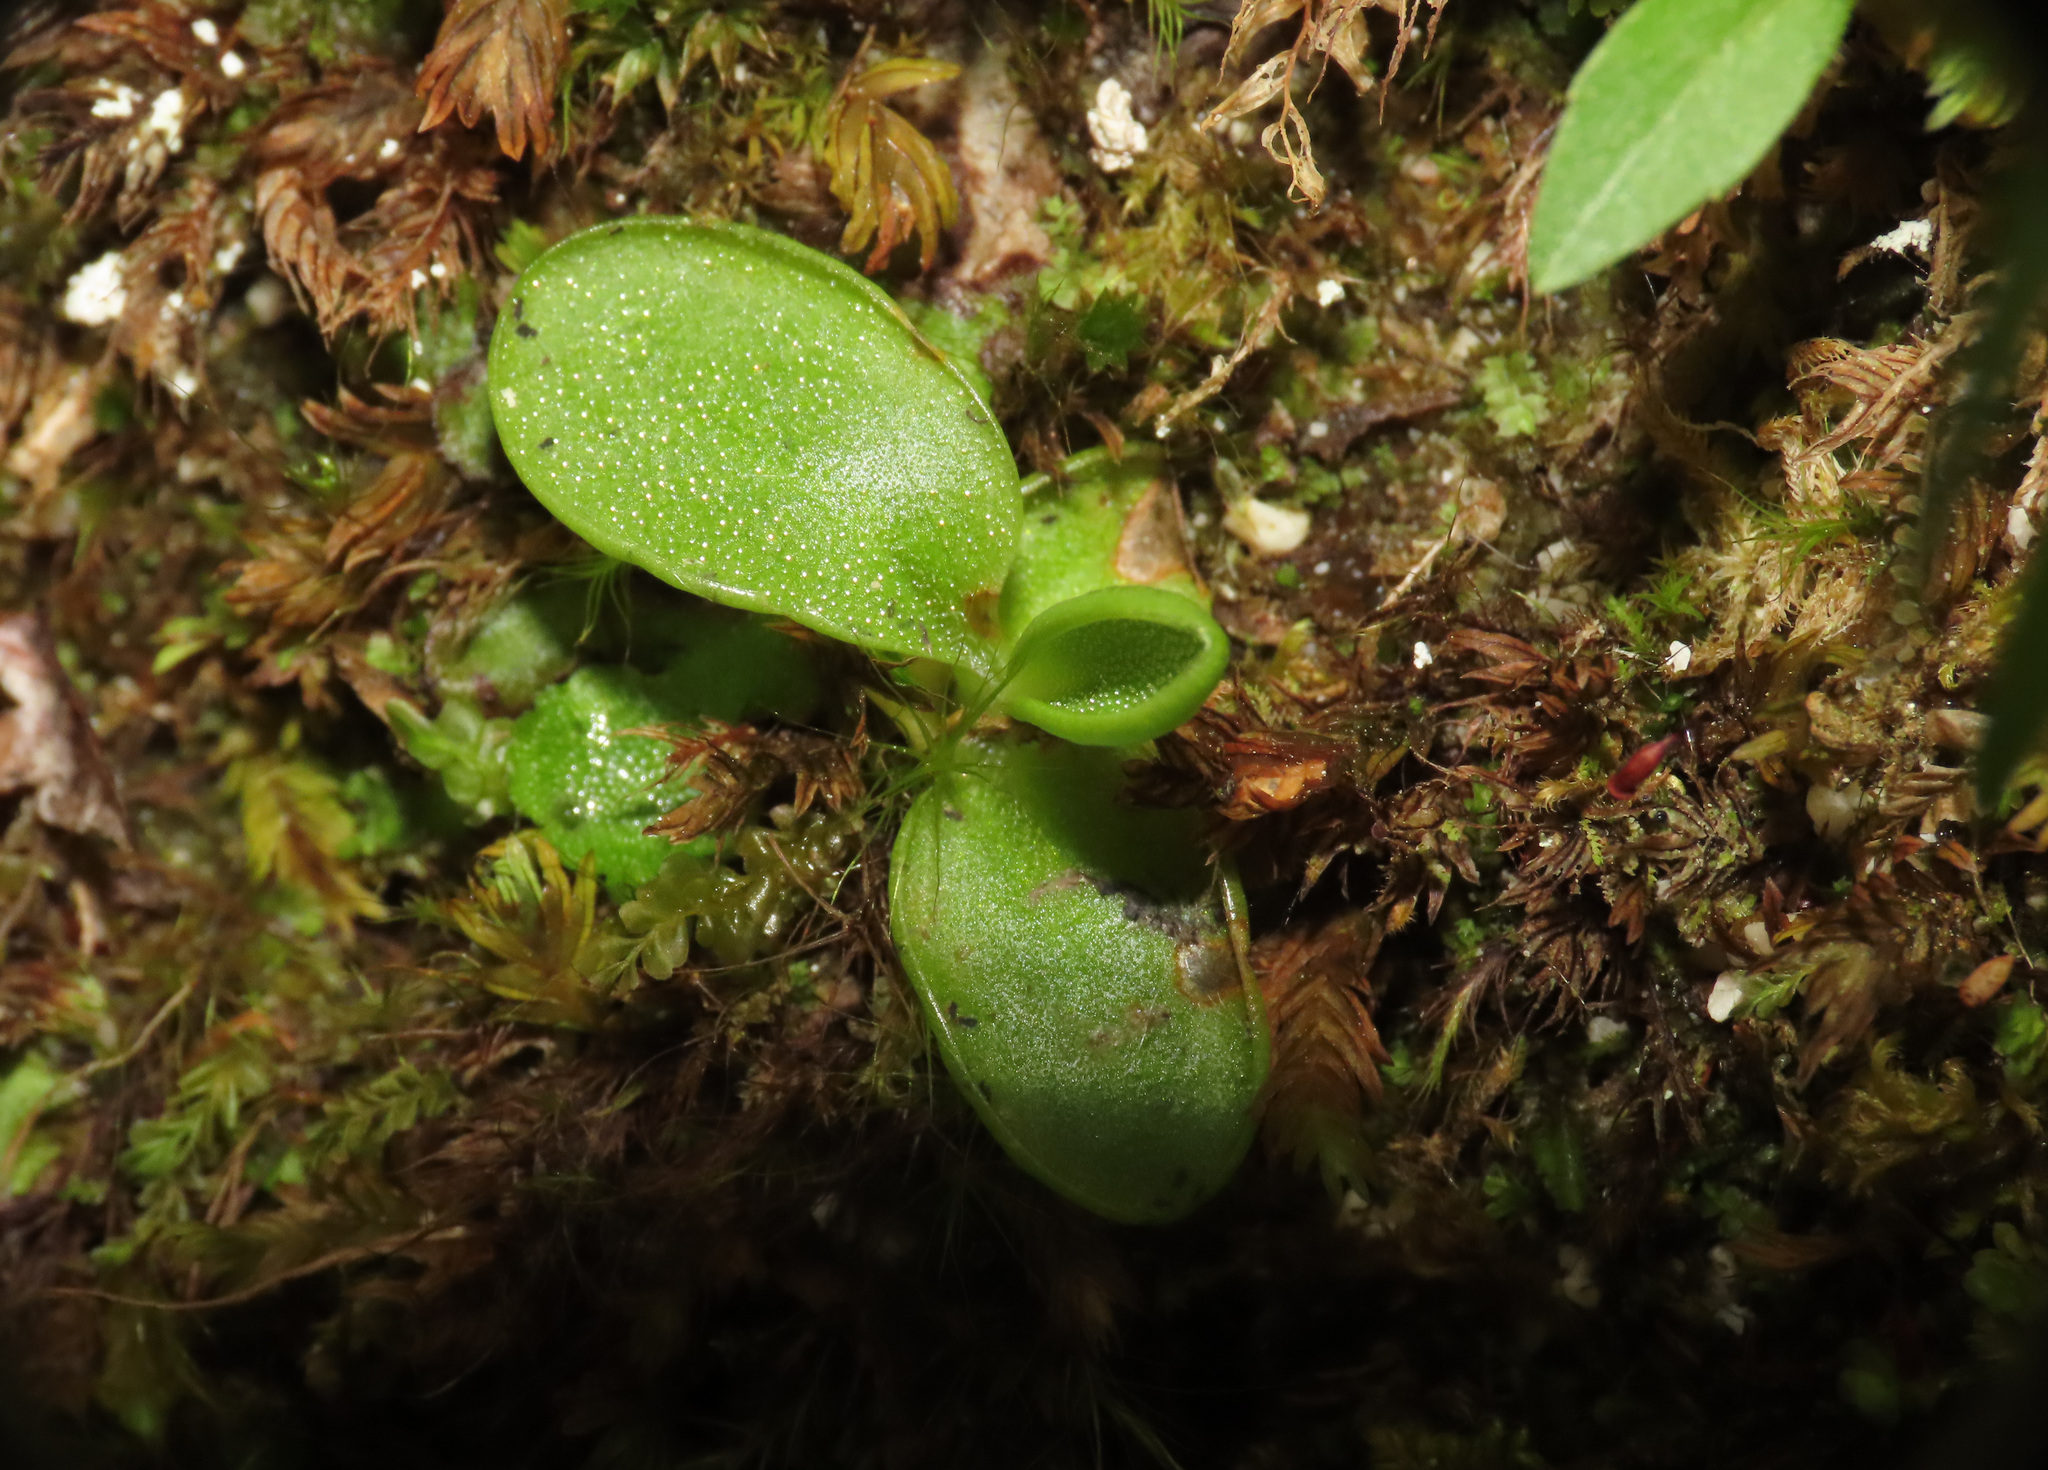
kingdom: Plantae
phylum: Tracheophyta
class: Magnoliopsida
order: Lamiales
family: Lentibulariaceae
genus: Pinguicula
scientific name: Pinguicula vallis-regiae
